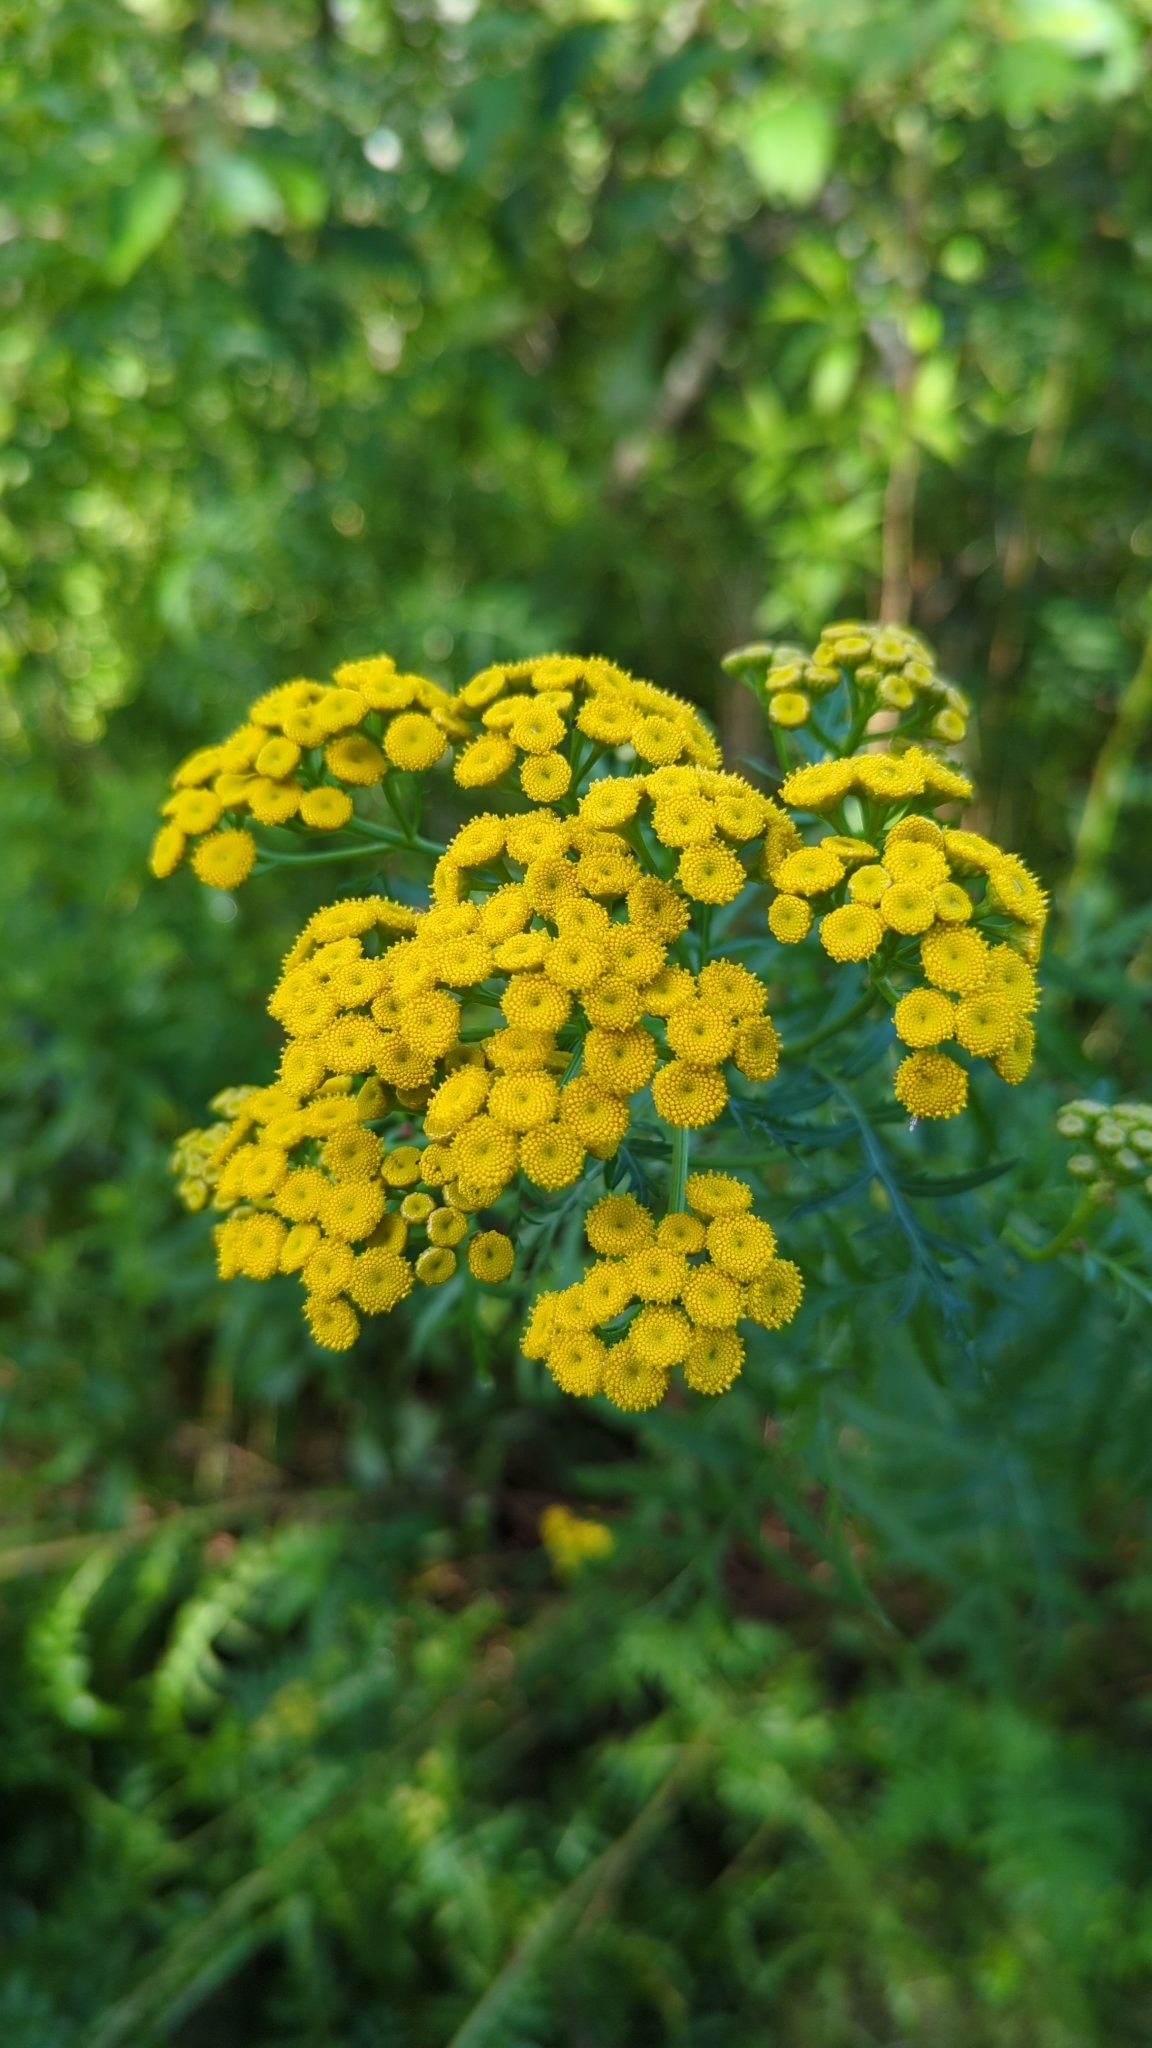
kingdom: Plantae
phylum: Tracheophyta
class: Magnoliopsida
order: Asterales
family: Asteraceae
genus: Tanacetum
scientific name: Tanacetum vulgare
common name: Common tansy
